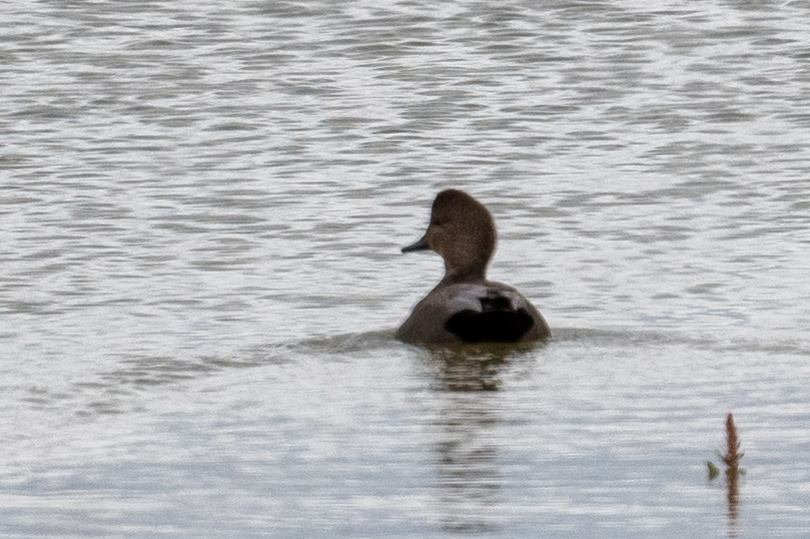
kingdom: Animalia
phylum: Chordata
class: Aves
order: Anseriformes
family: Anatidae
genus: Mareca
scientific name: Mareca strepera
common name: Gadwall
